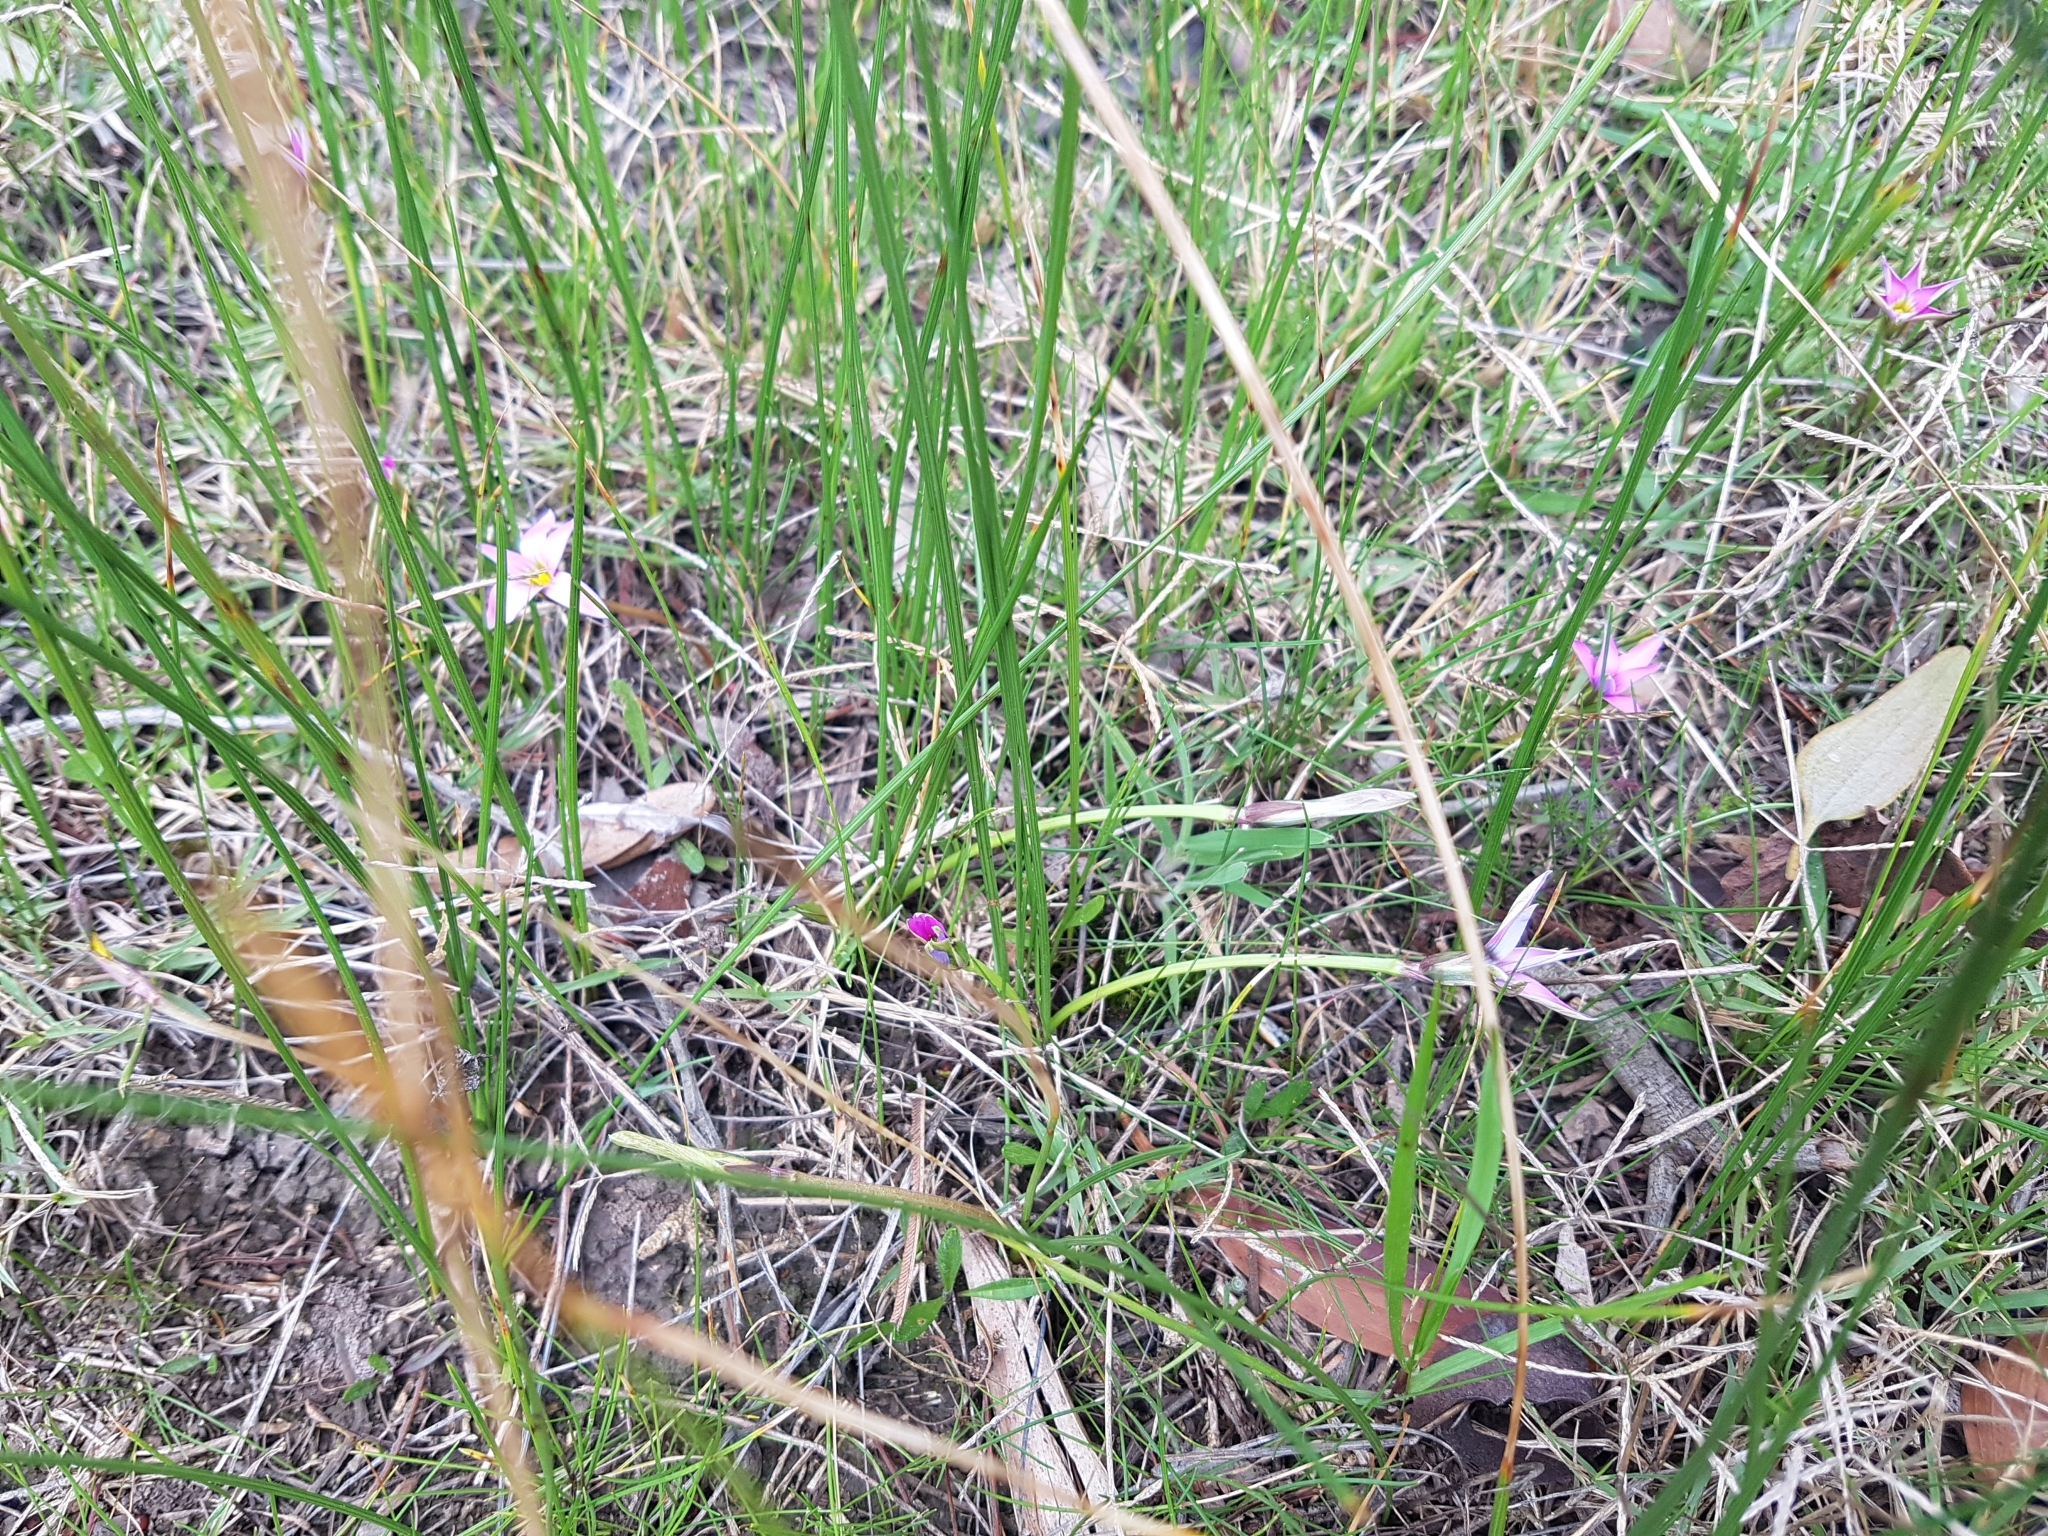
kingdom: Plantae
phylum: Tracheophyta
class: Liliopsida
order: Asparagales
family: Iridaceae
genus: Romulea
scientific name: Romulea rosea
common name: Oniongrass
